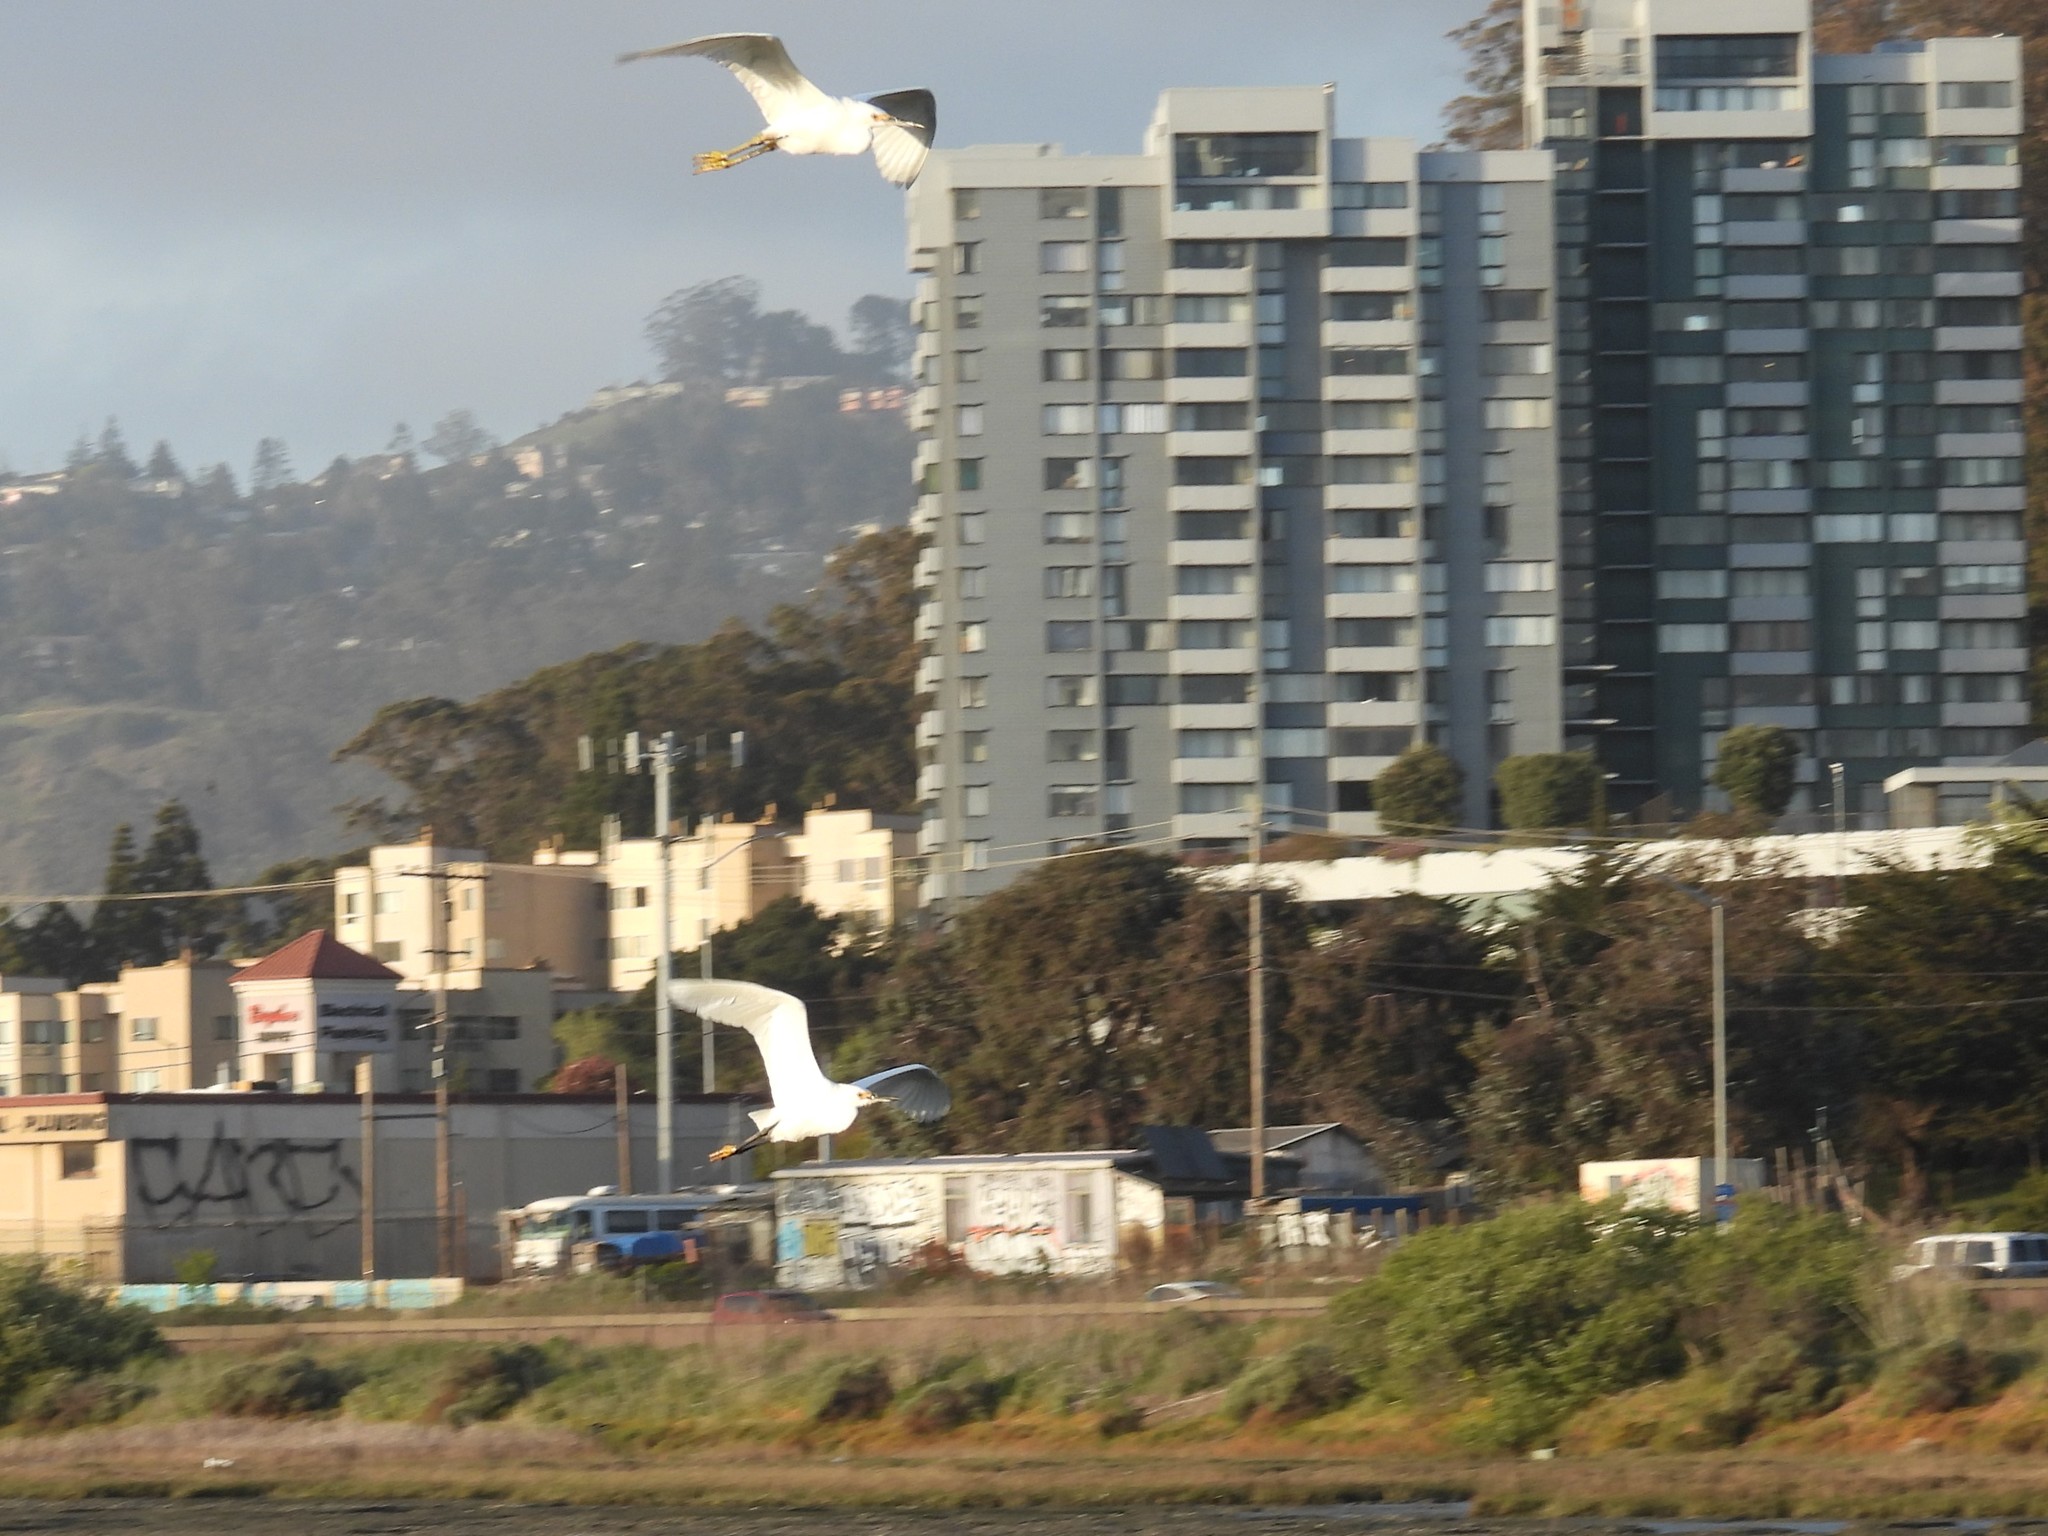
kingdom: Animalia
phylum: Chordata
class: Aves
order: Pelecaniformes
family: Ardeidae
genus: Egretta
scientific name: Egretta thula
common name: Snowy egret
